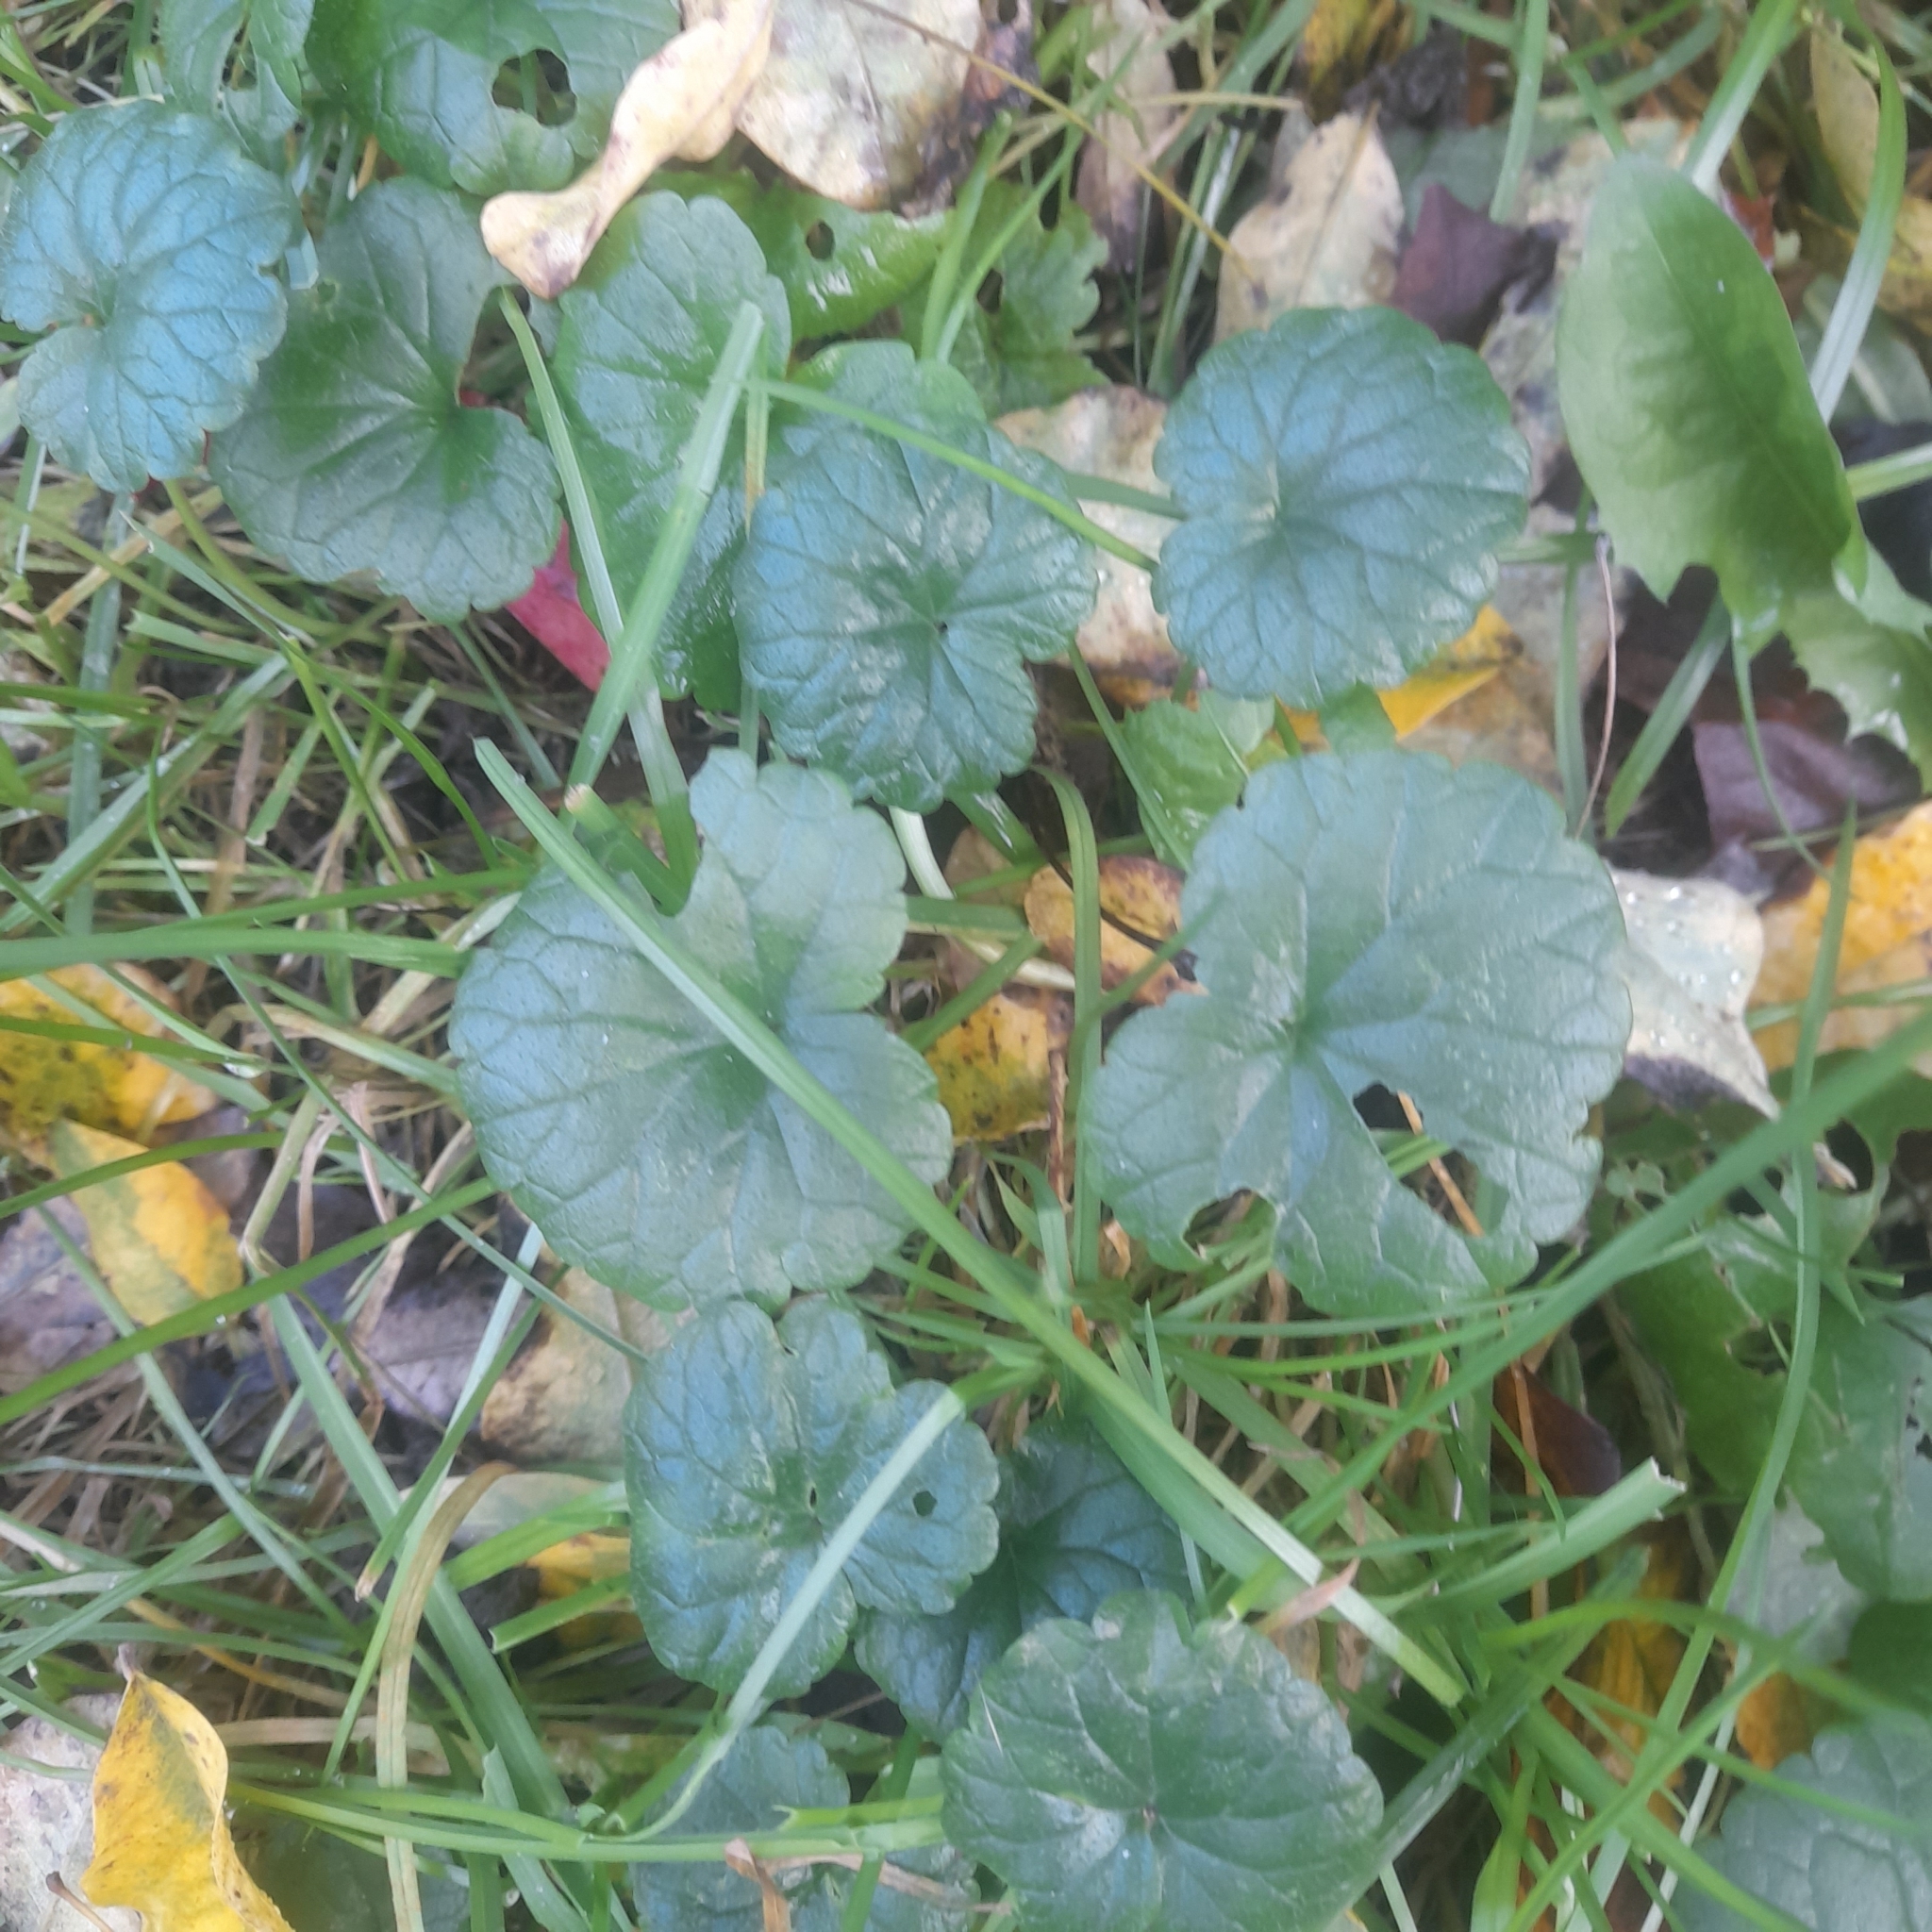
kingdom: Plantae
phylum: Tracheophyta
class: Magnoliopsida
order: Lamiales
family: Lamiaceae
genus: Glechoma
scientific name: Glechoma hederacea
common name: Ground ivy
